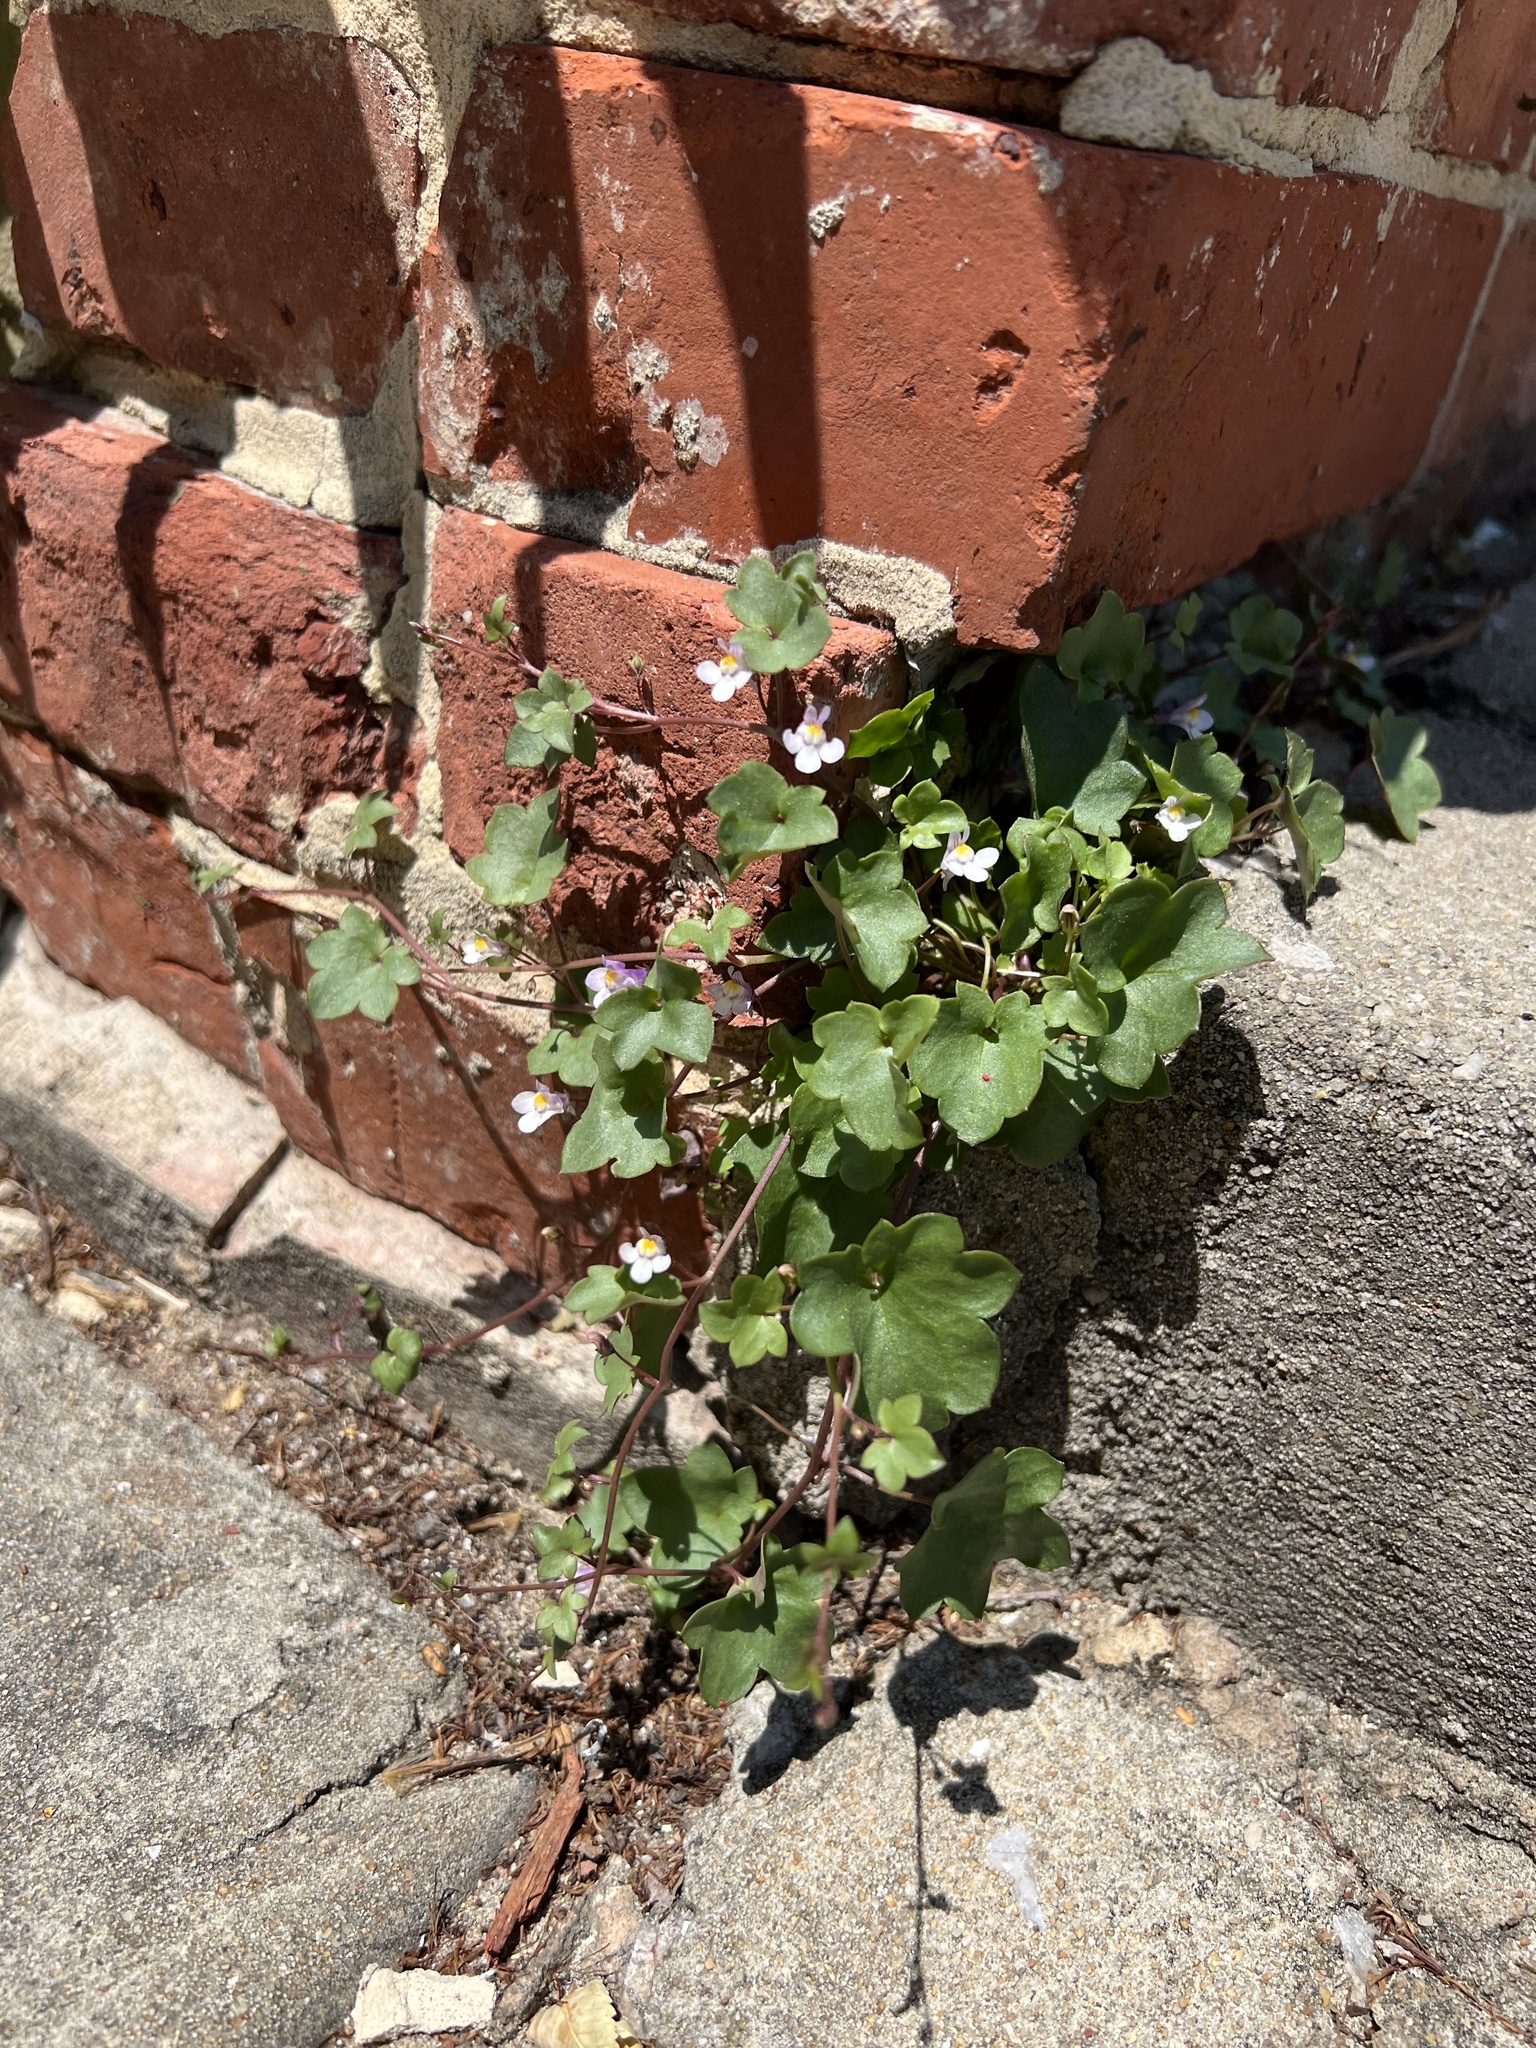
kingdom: Plantae
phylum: Tracheophyta
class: Magnoliopsida
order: Lamiales
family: Plantaginaceae
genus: Cymbalaria
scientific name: Cymbalaria muralis
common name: Ivy-leaved toadflax
